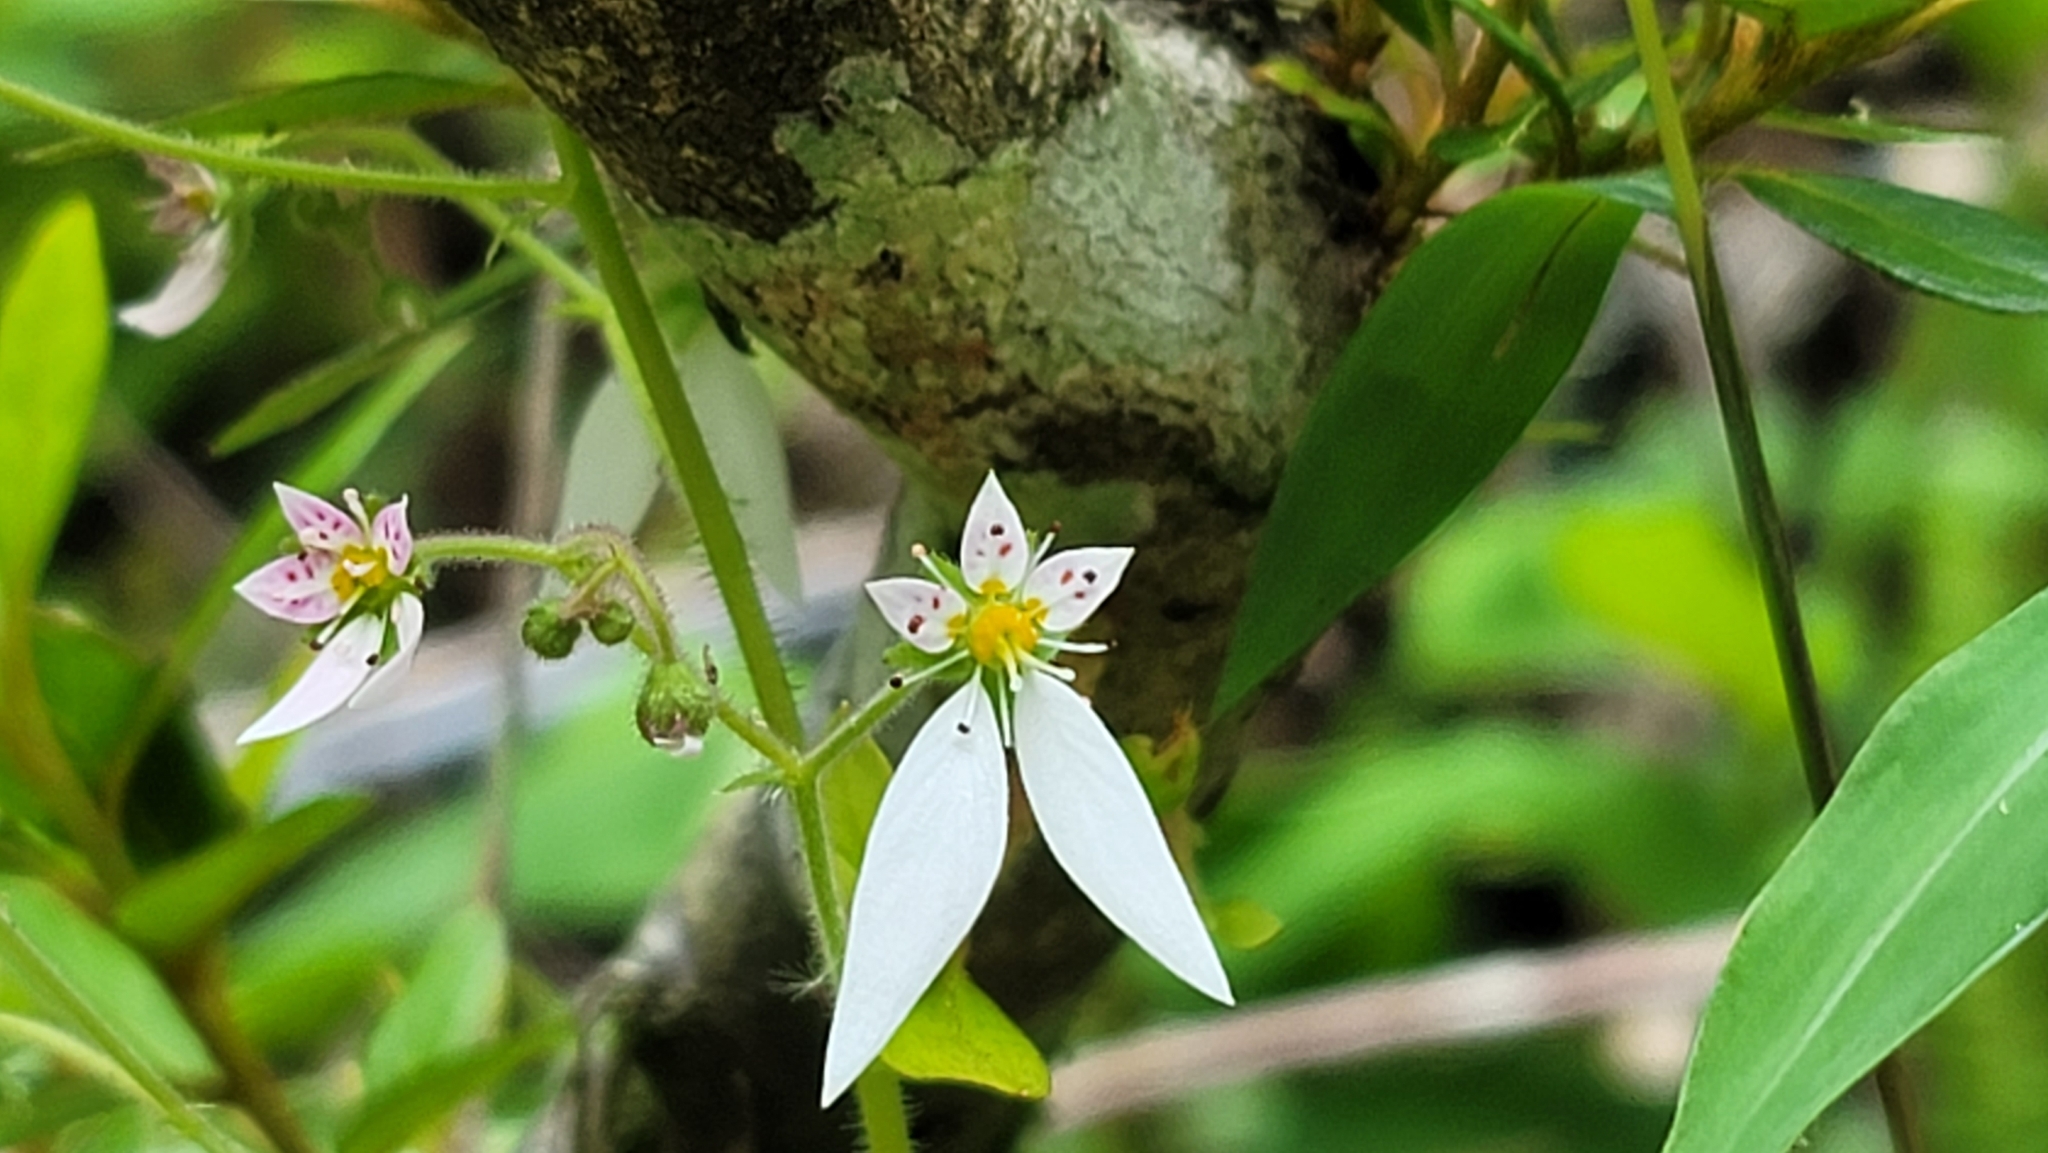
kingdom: Plantae
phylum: Tracheophyta
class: Magnoliopsida
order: Saxifragales
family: Saxifragaceae
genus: Saxifraga
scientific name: Saxifraga stolonifera
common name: Creeping saxifrage
